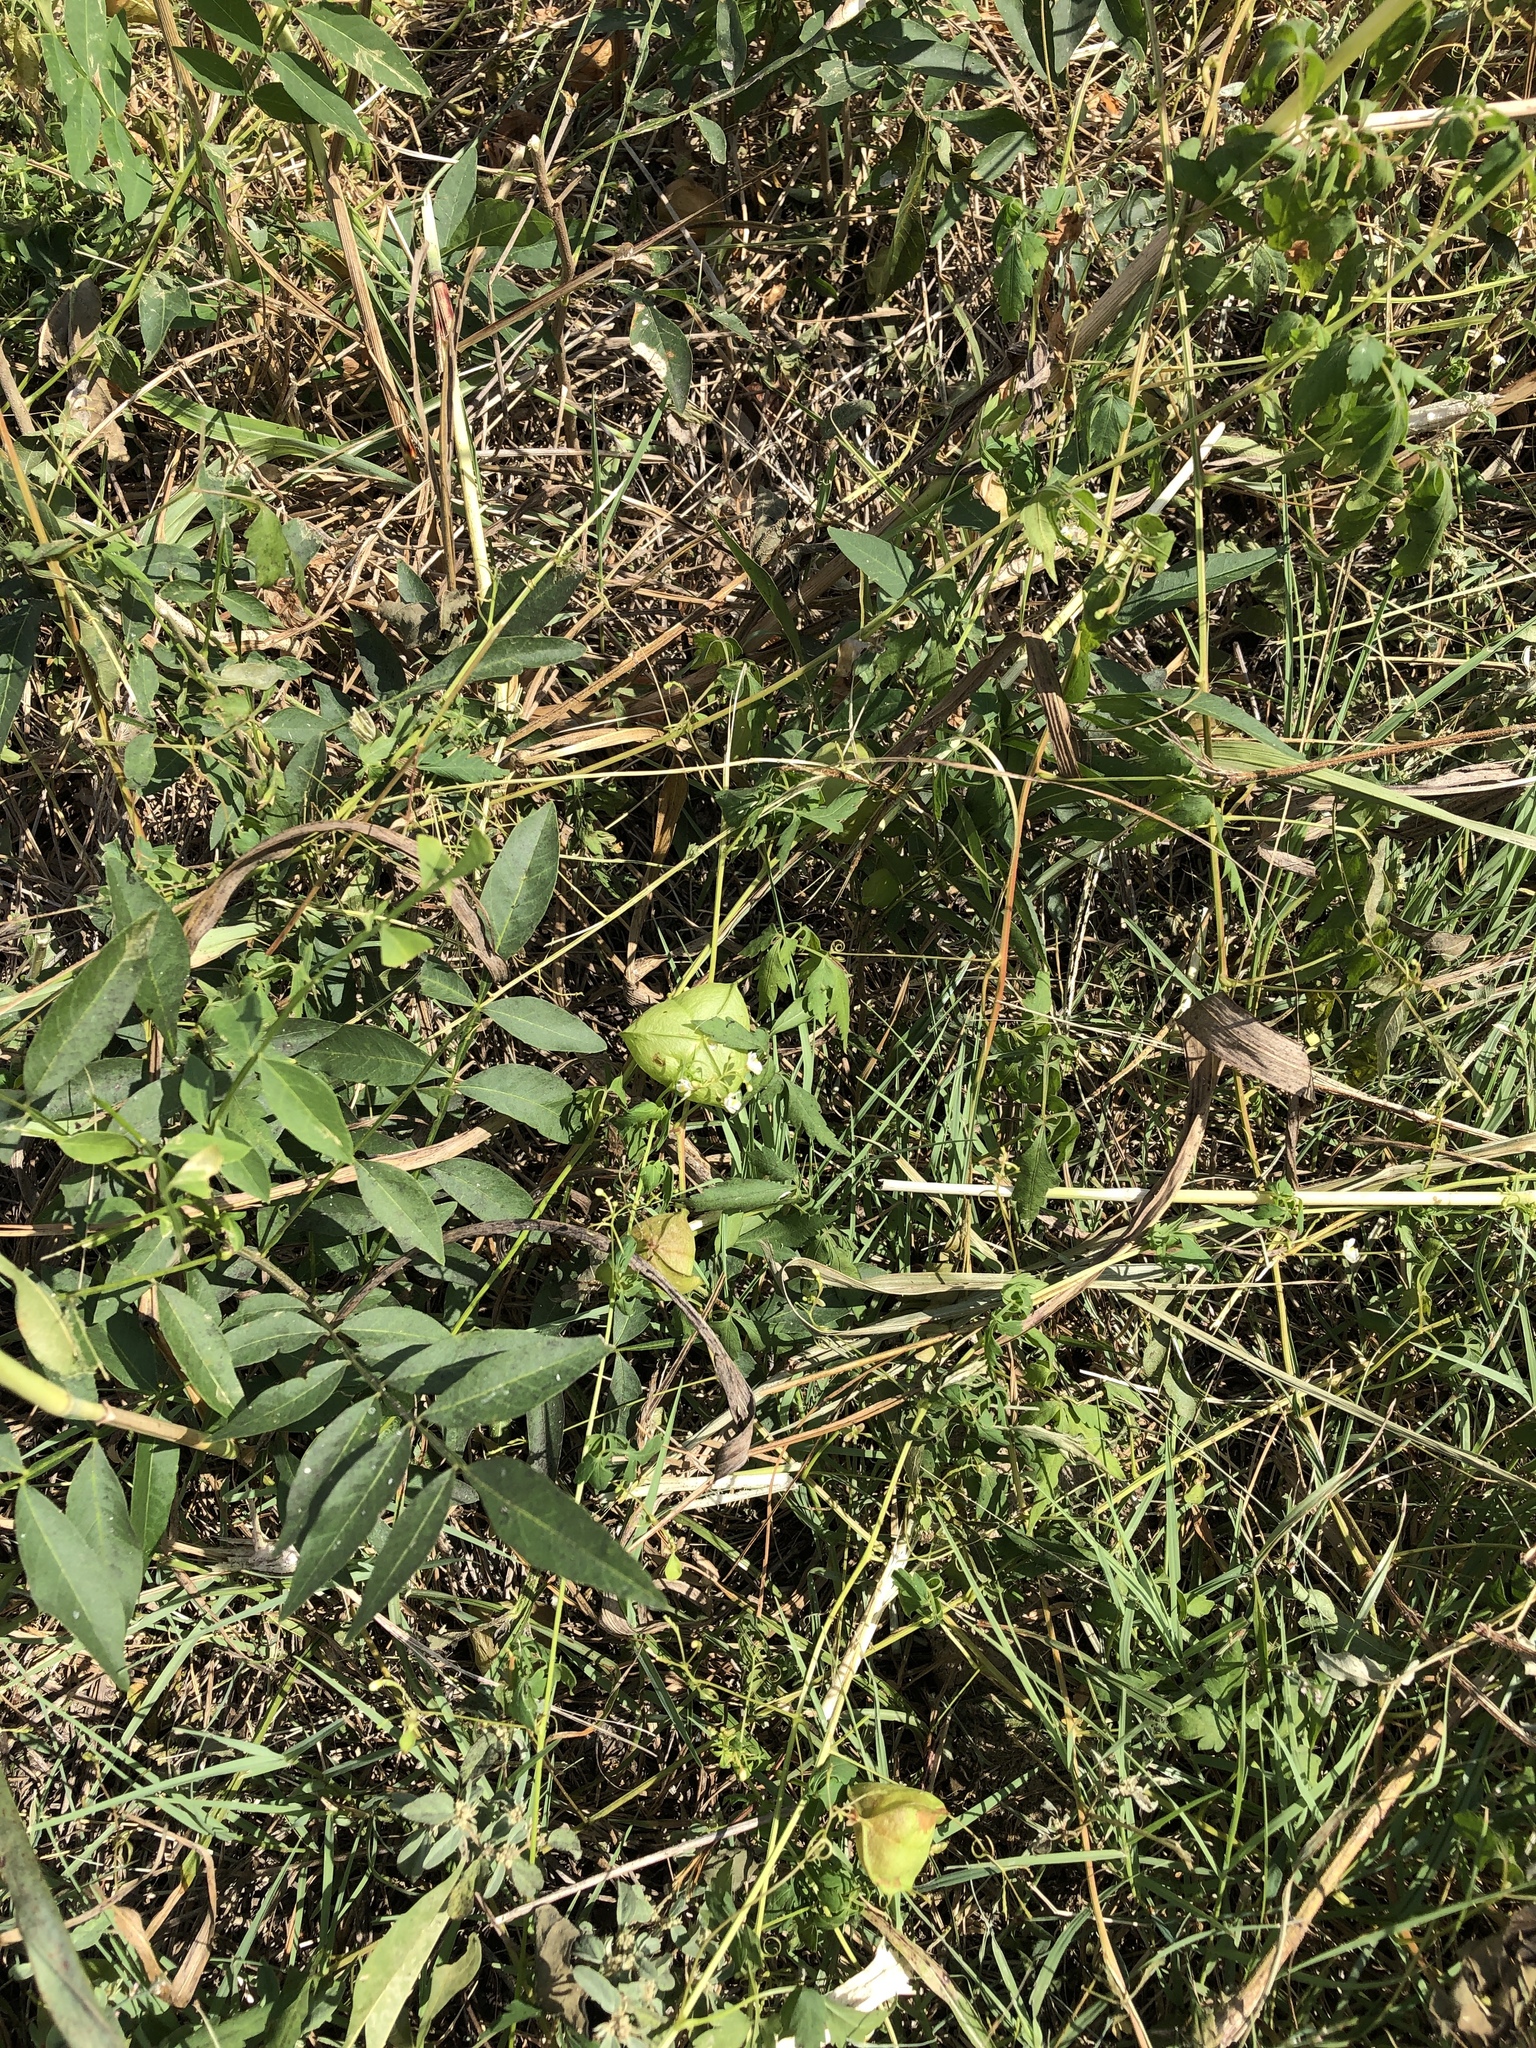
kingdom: Plantae
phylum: Tracheophyta
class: Magnoliopsida
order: Sapindales
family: Sapindaceae
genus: Cardiospermum
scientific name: Cardiospermum halicacabum
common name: Balloon vine
